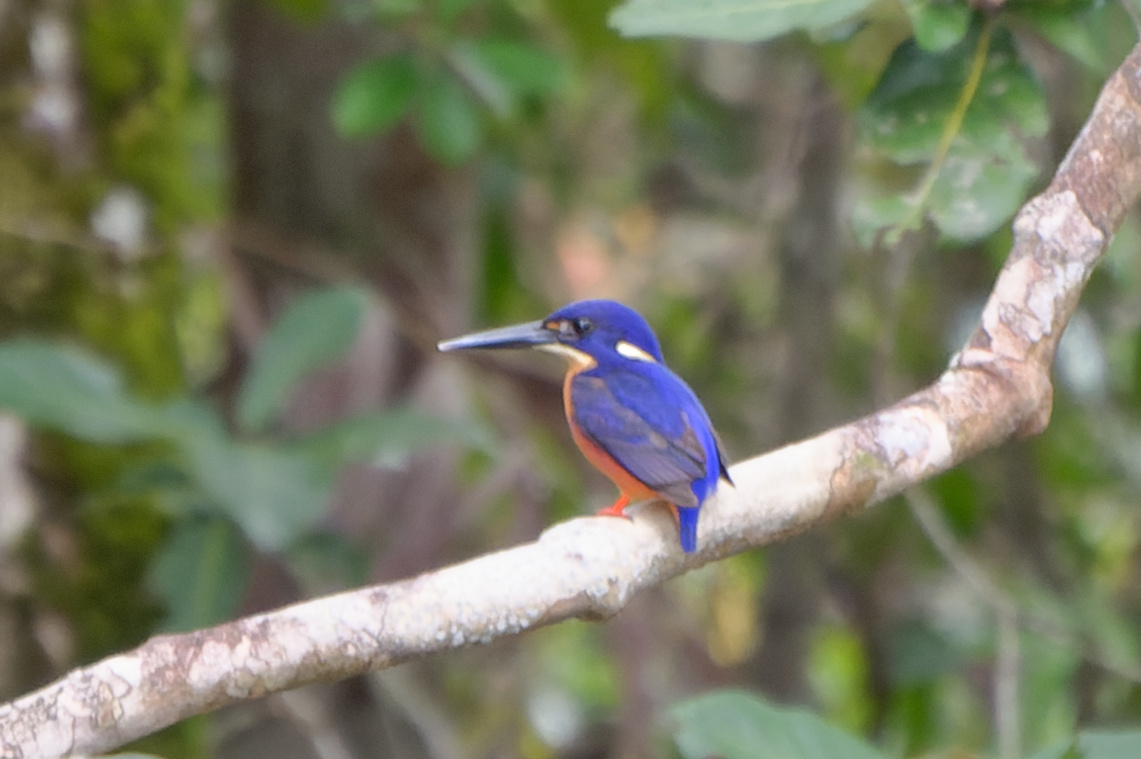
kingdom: Animalia
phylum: Chordata
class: Aves
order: Coraciiformes
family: Alcedinidae
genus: Ceyx
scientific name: Ceyx azureus
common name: Azure kingfisher
